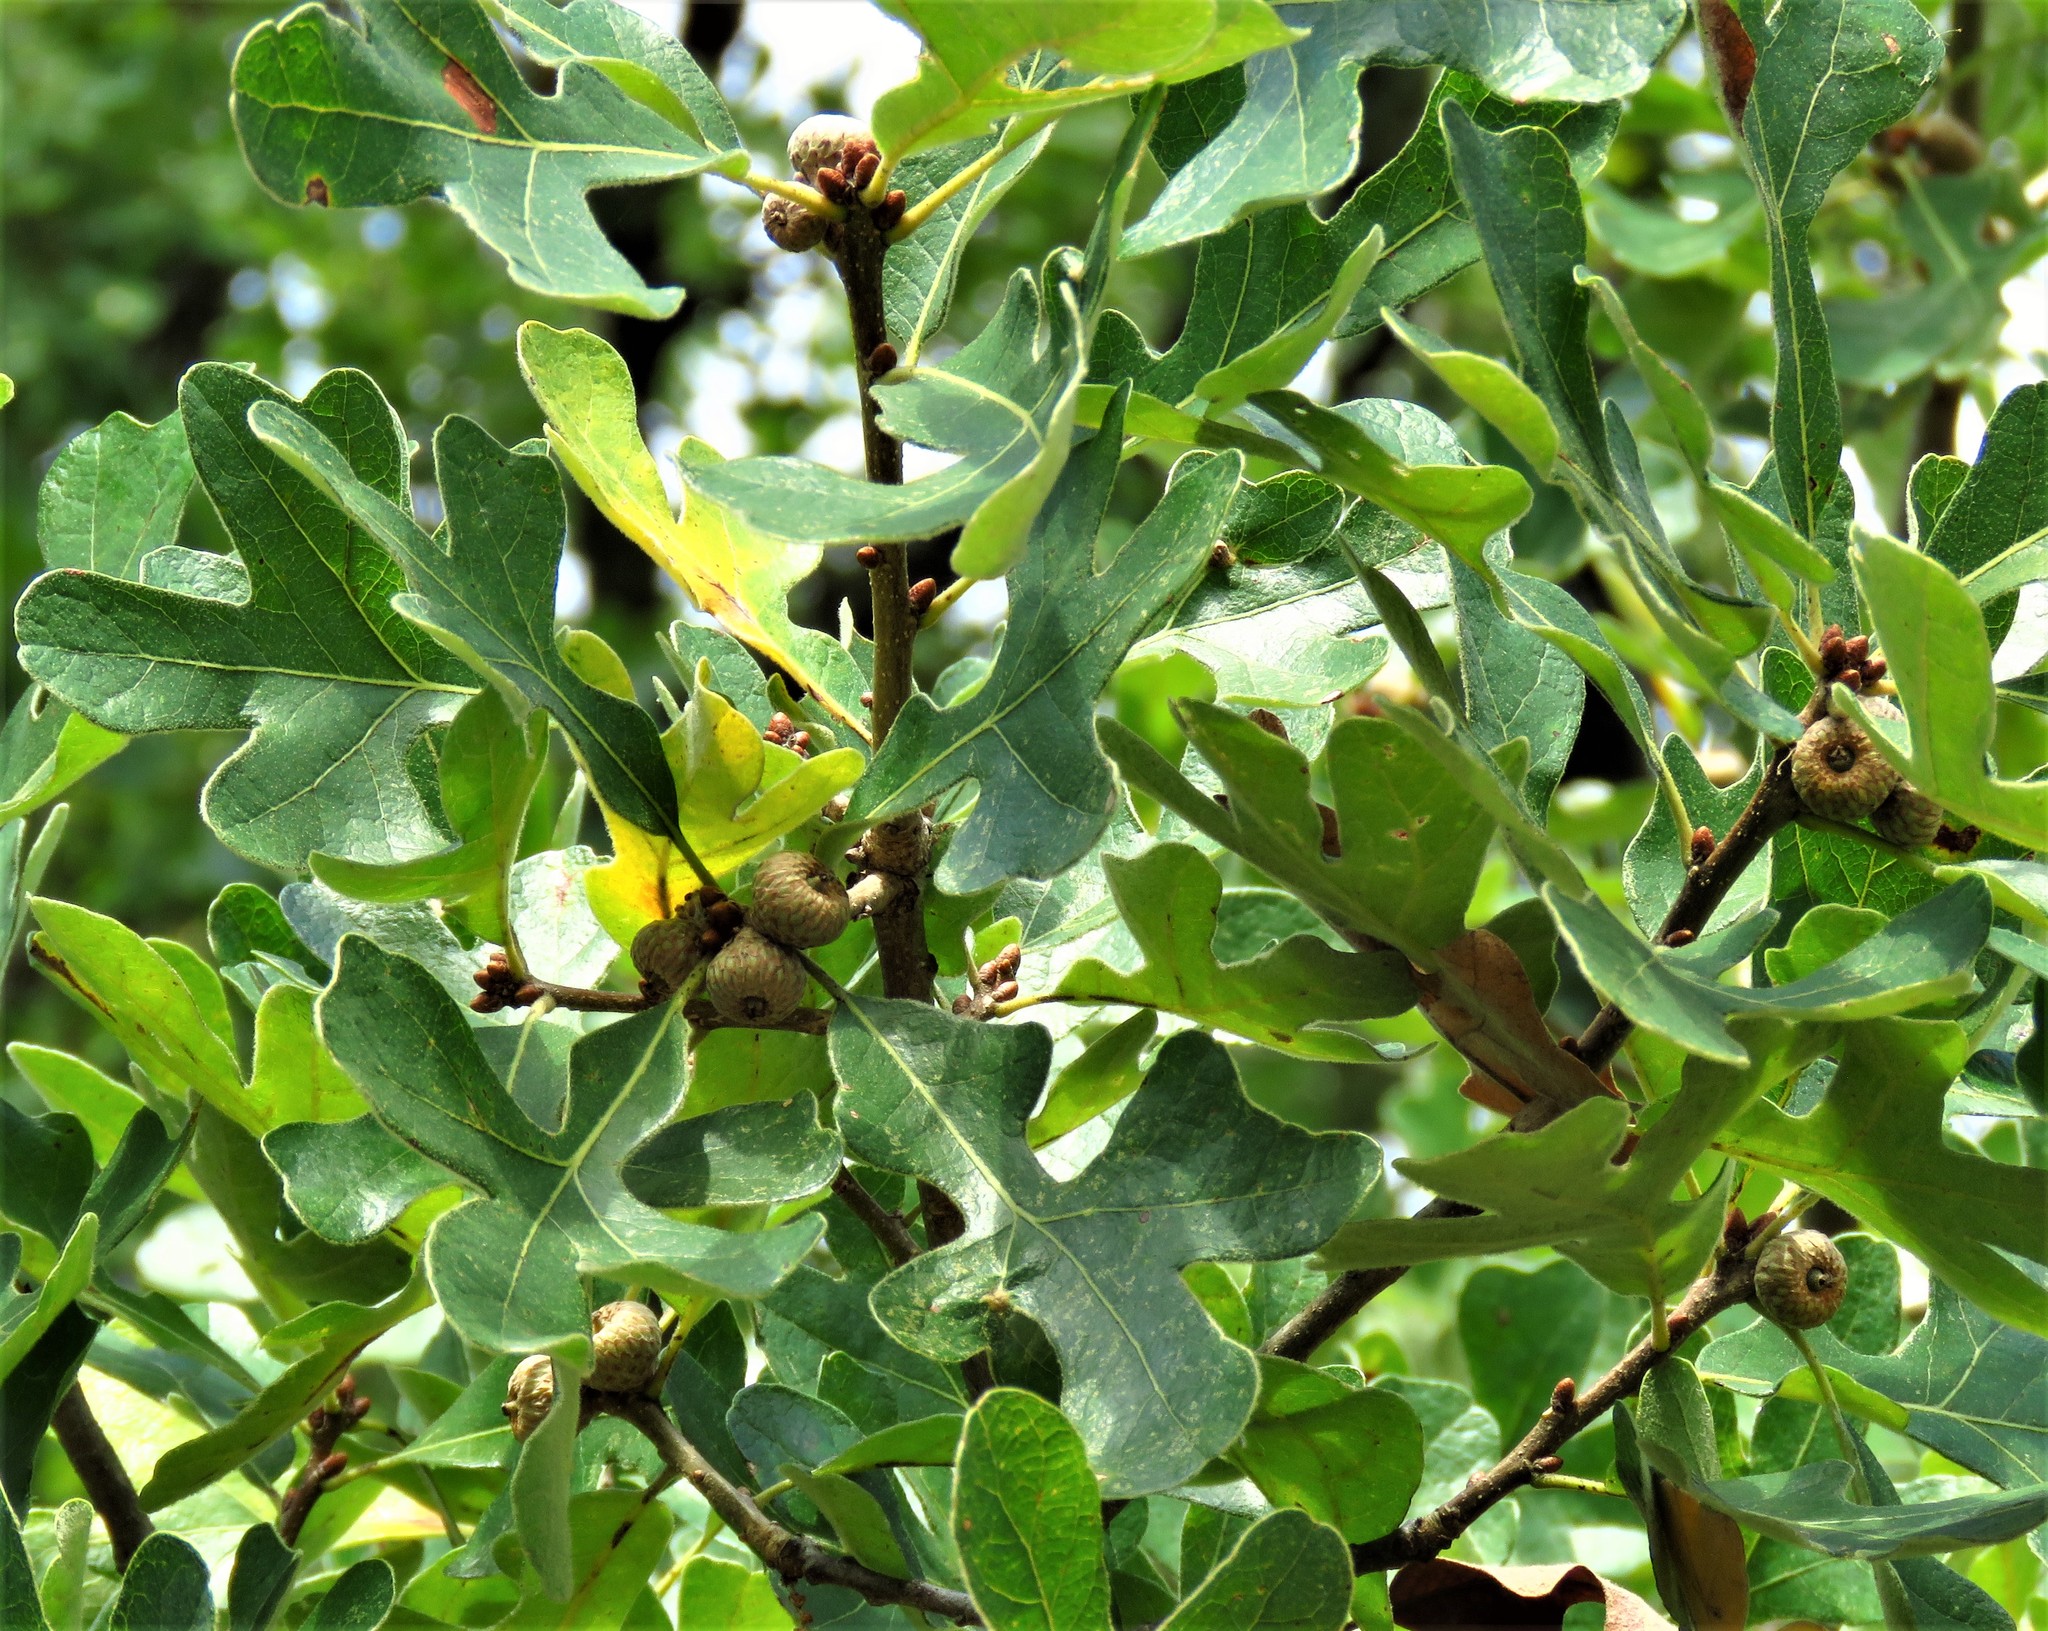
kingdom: Plantae
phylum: Tracheophyta
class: Magnoliopsida
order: Fagales
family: Fagaceae
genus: Quercus
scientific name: Quercus margaretiae
